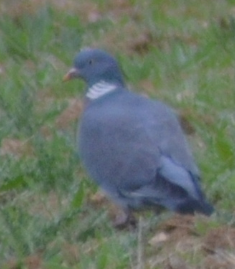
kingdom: Animalia
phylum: Chordata
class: Aves
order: Columbiformes
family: Columbidae
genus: Columba
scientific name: Columba palumbus
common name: Common wood pigeon
